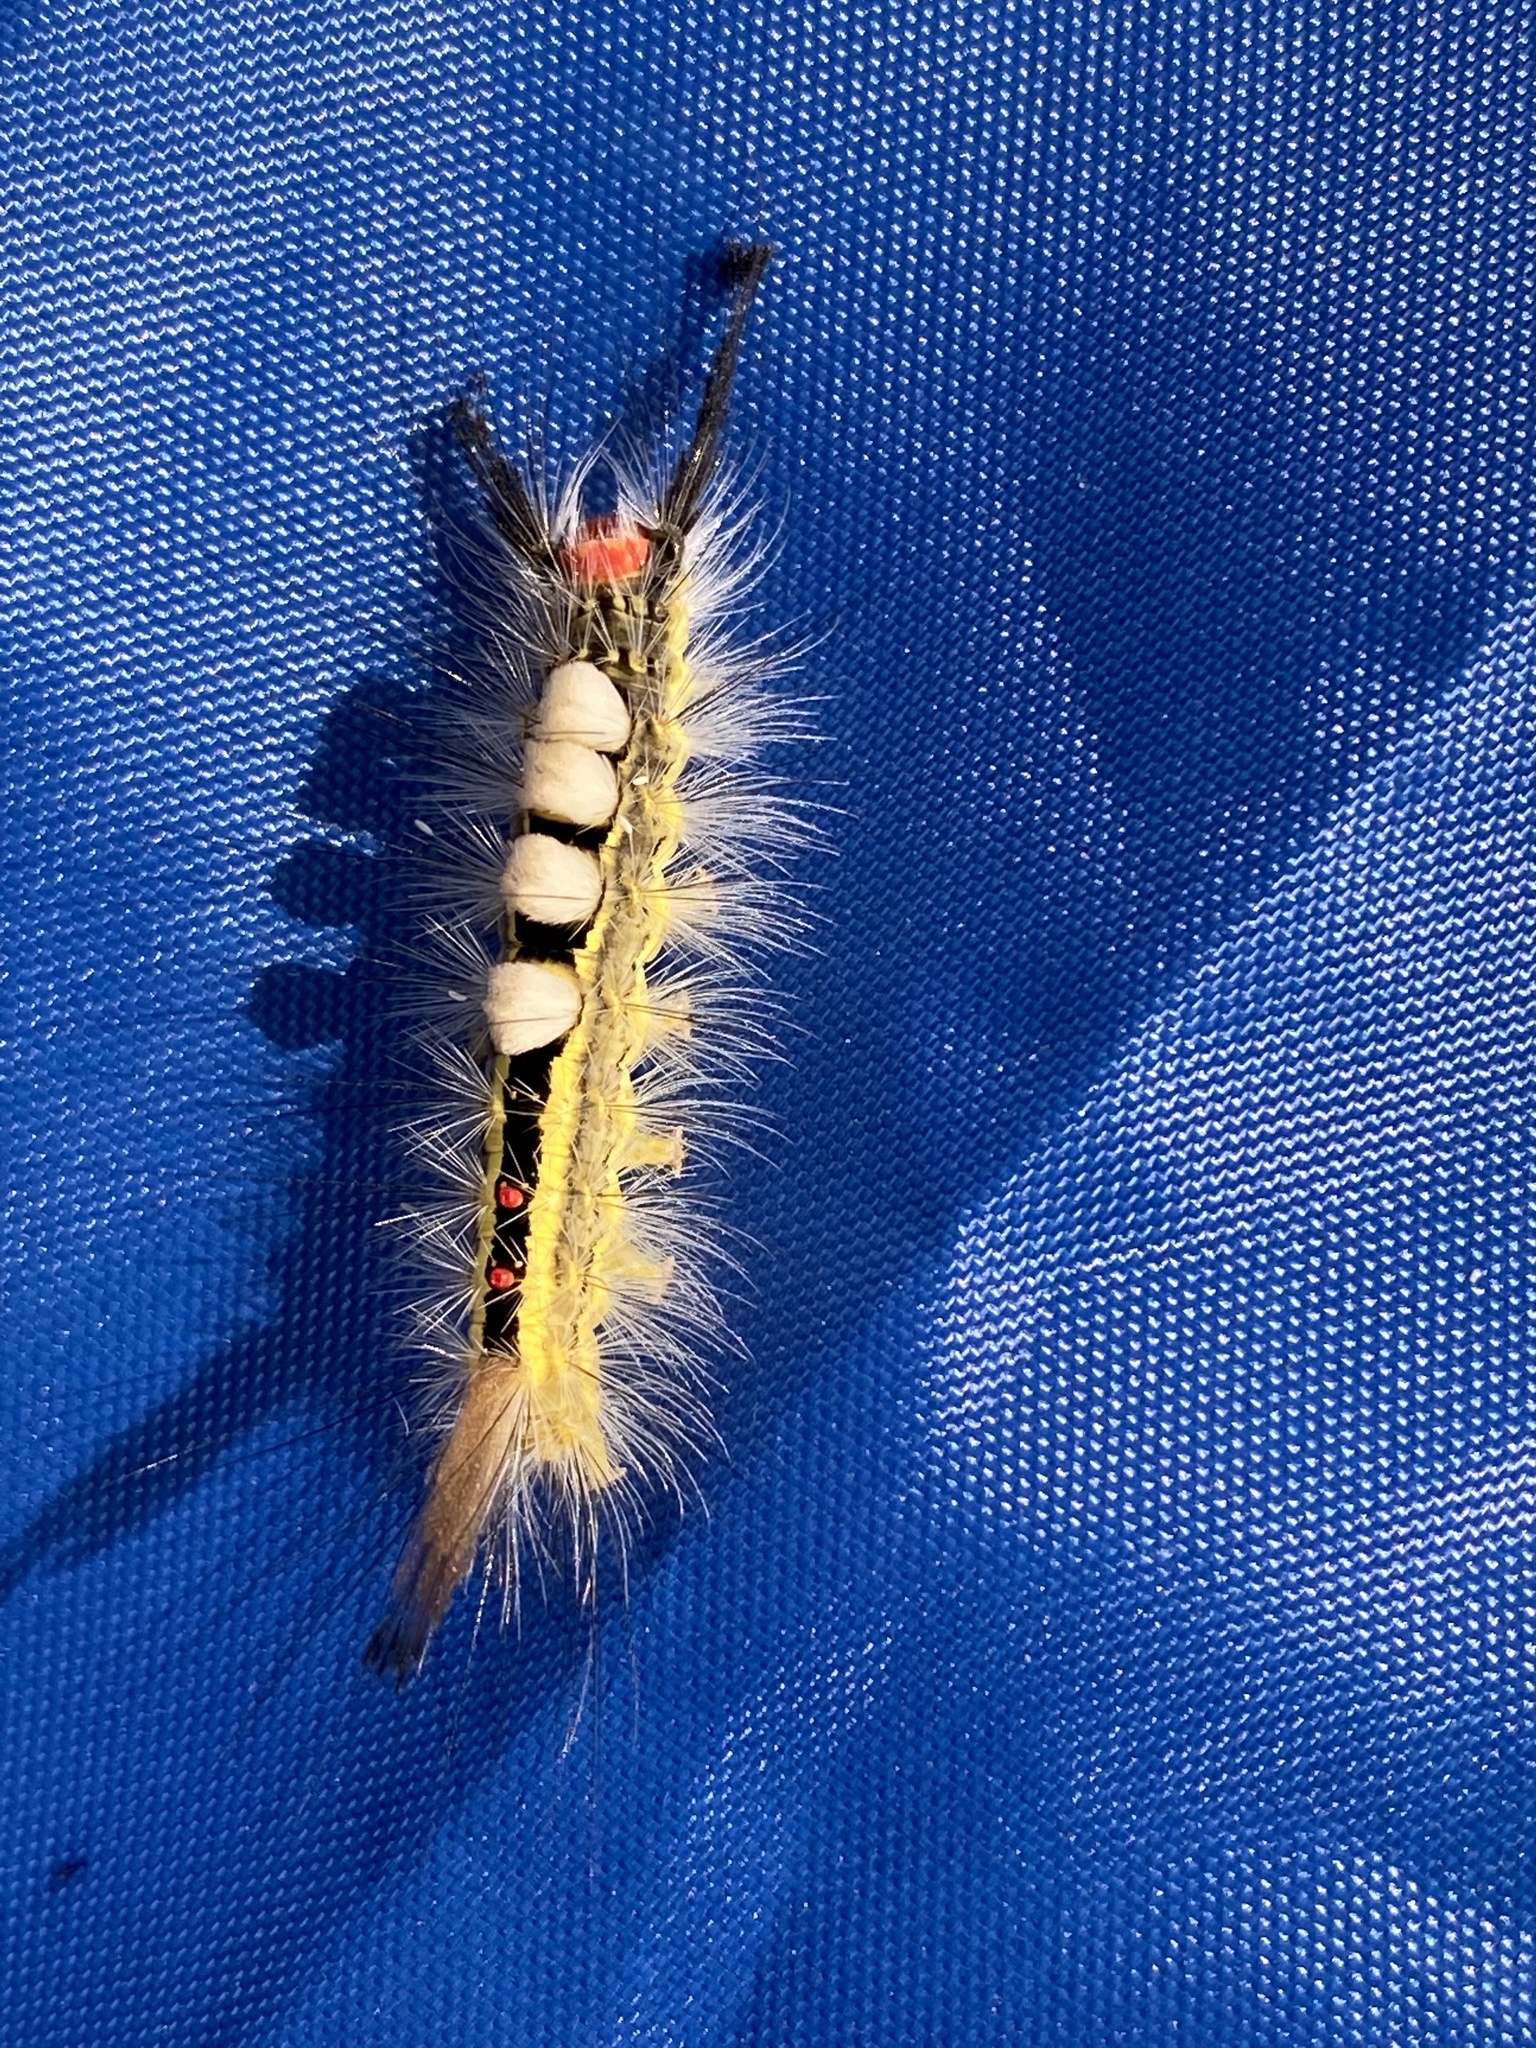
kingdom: Animalia
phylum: Arthropoda
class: Insecta
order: Lepidoptera
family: Erebidae
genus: Orgyia
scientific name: Orgyia leucostigma
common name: White-marked tussock moth
